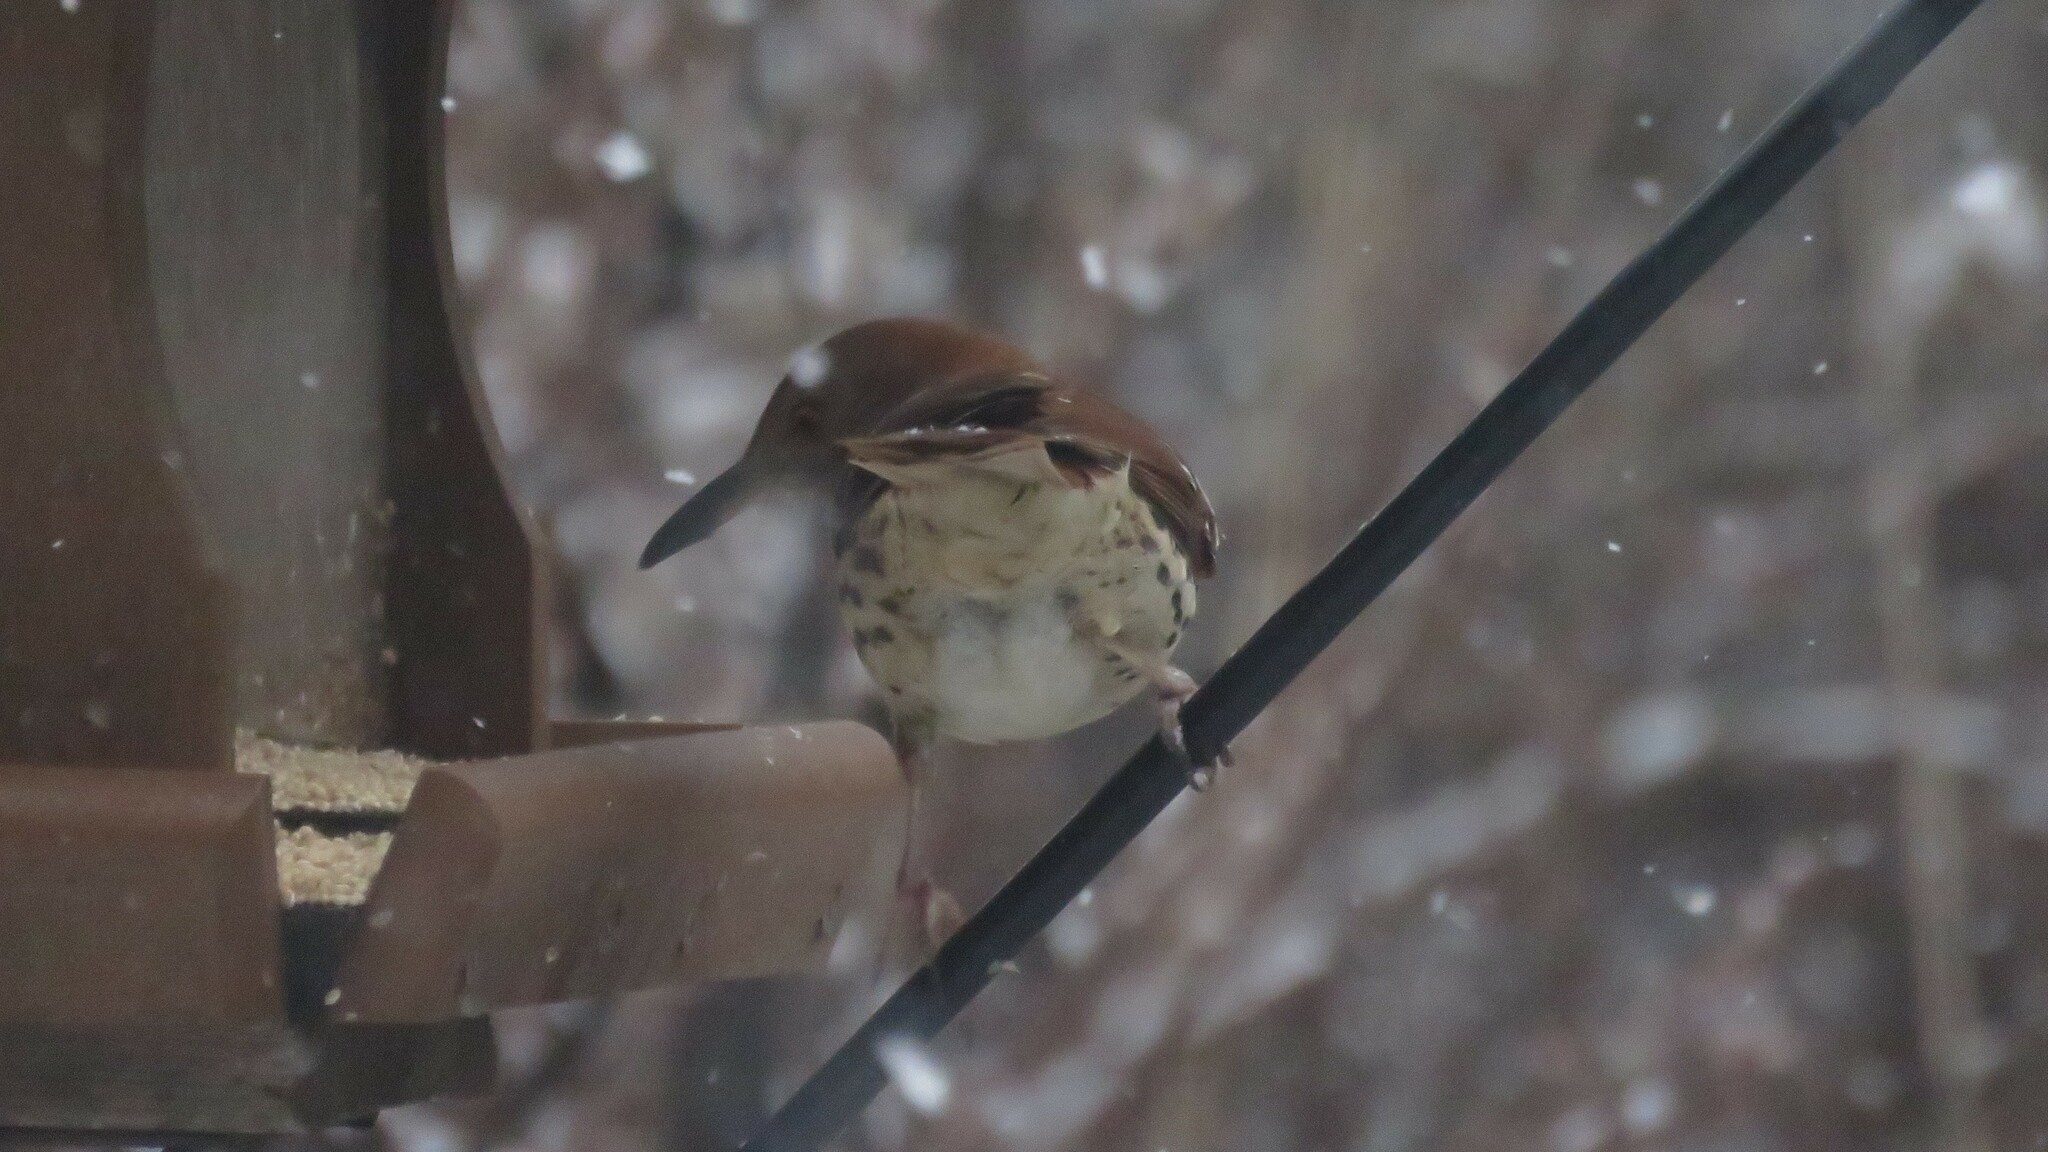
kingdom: Animalia
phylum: Chordata
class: Aves
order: Passeriformes
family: Mimidae
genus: Toxostoma
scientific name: Toxostoma rufum
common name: Brown thrasher
